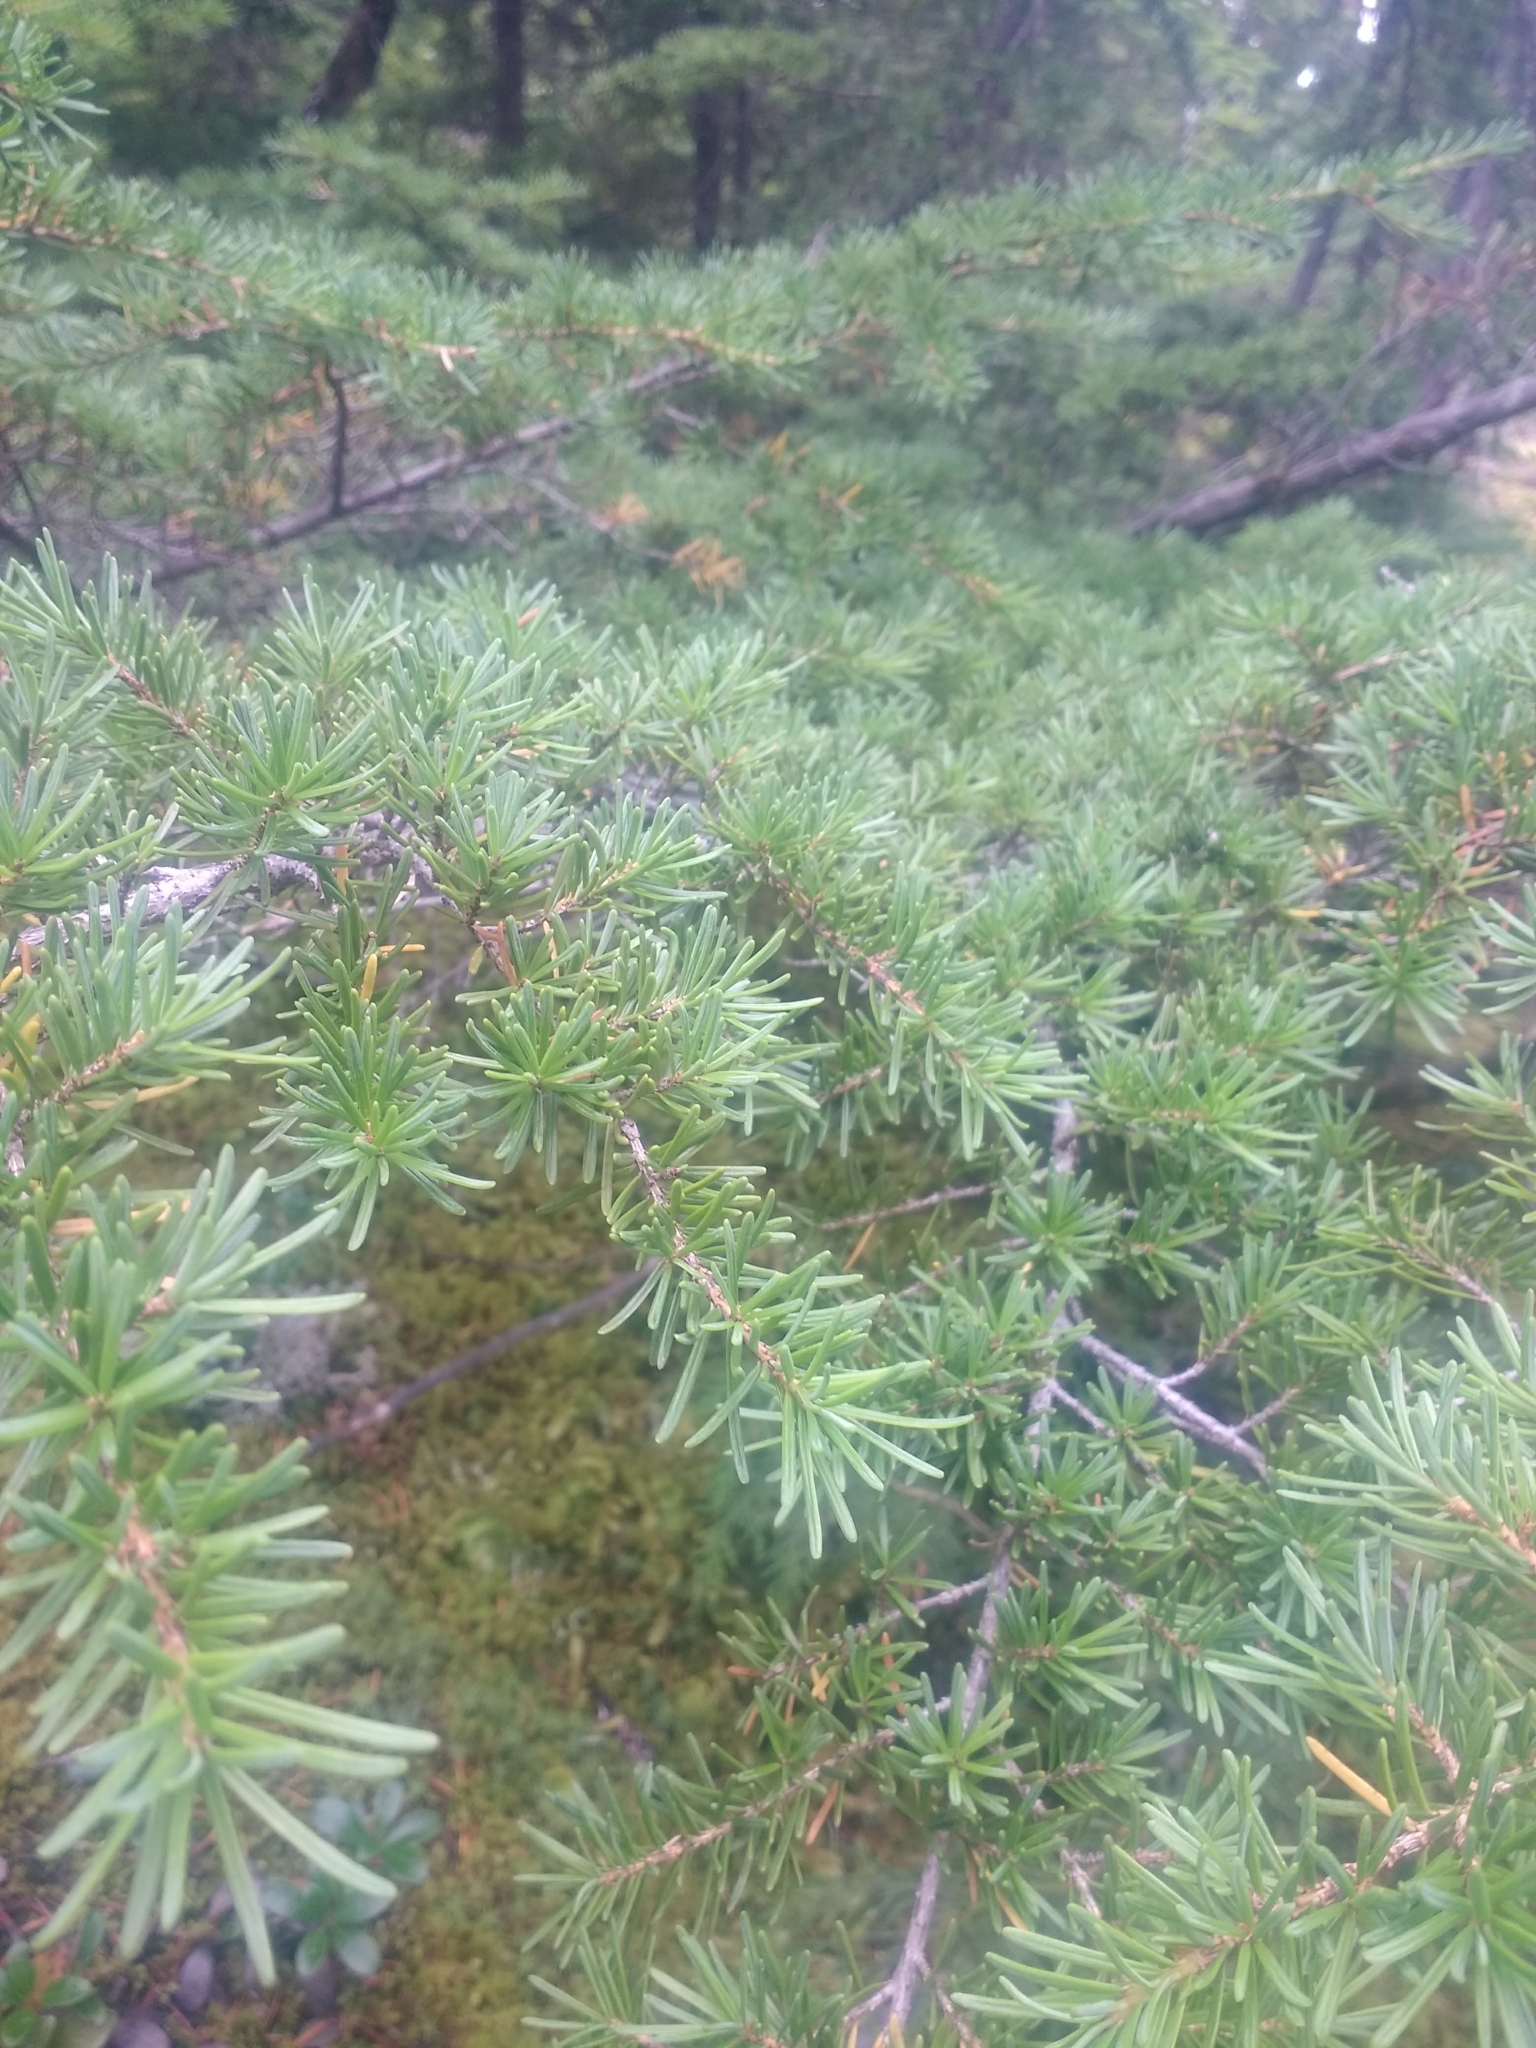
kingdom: Plantae
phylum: Tracheophyta
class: Pinopsida
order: Pinales
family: Pinaceae
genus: Tsuga
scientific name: Tsuga mertensiana
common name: Mountain hemlock
